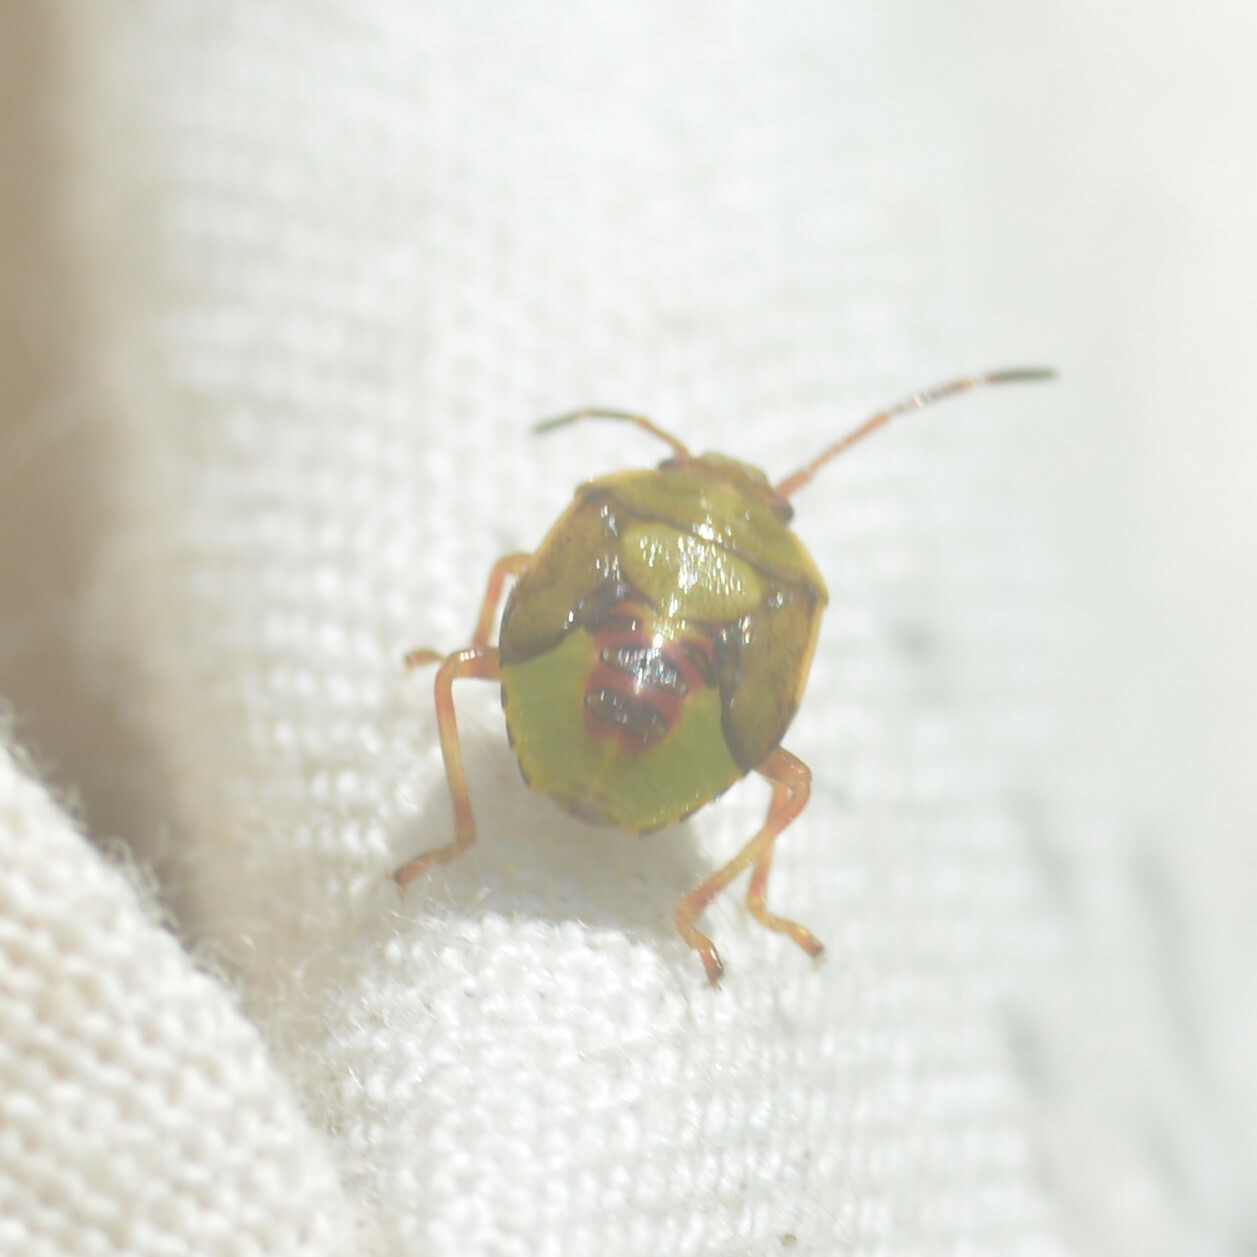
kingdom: Animalia
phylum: Arthropoda
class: Insecta
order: Hemiptera
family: Acanthosomatidae
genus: Elasmostethus
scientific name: Elasmostethus interstinctus
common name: Birch shieldbug
